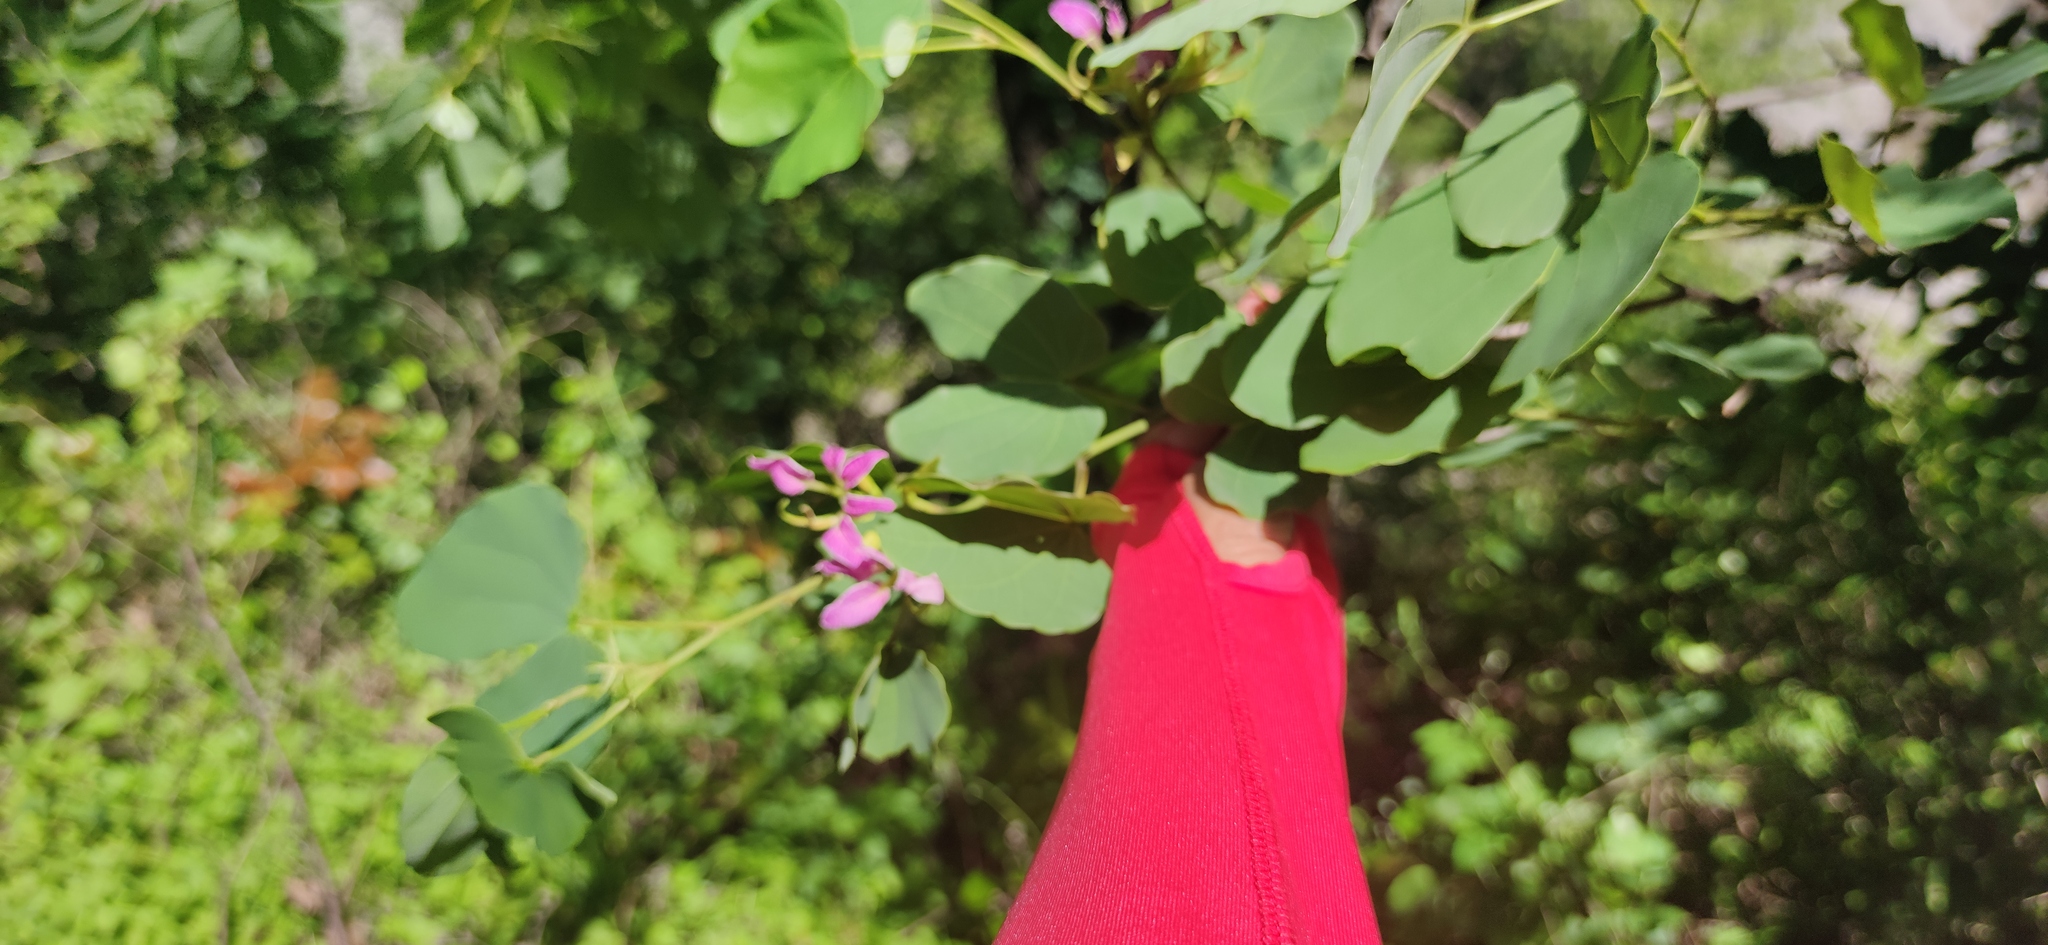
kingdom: Plantae
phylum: Tracheophyta
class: Magnoliopsida
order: Fabales
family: Fabaceae
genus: Bauhinia
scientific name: Bauhinia macranthera
